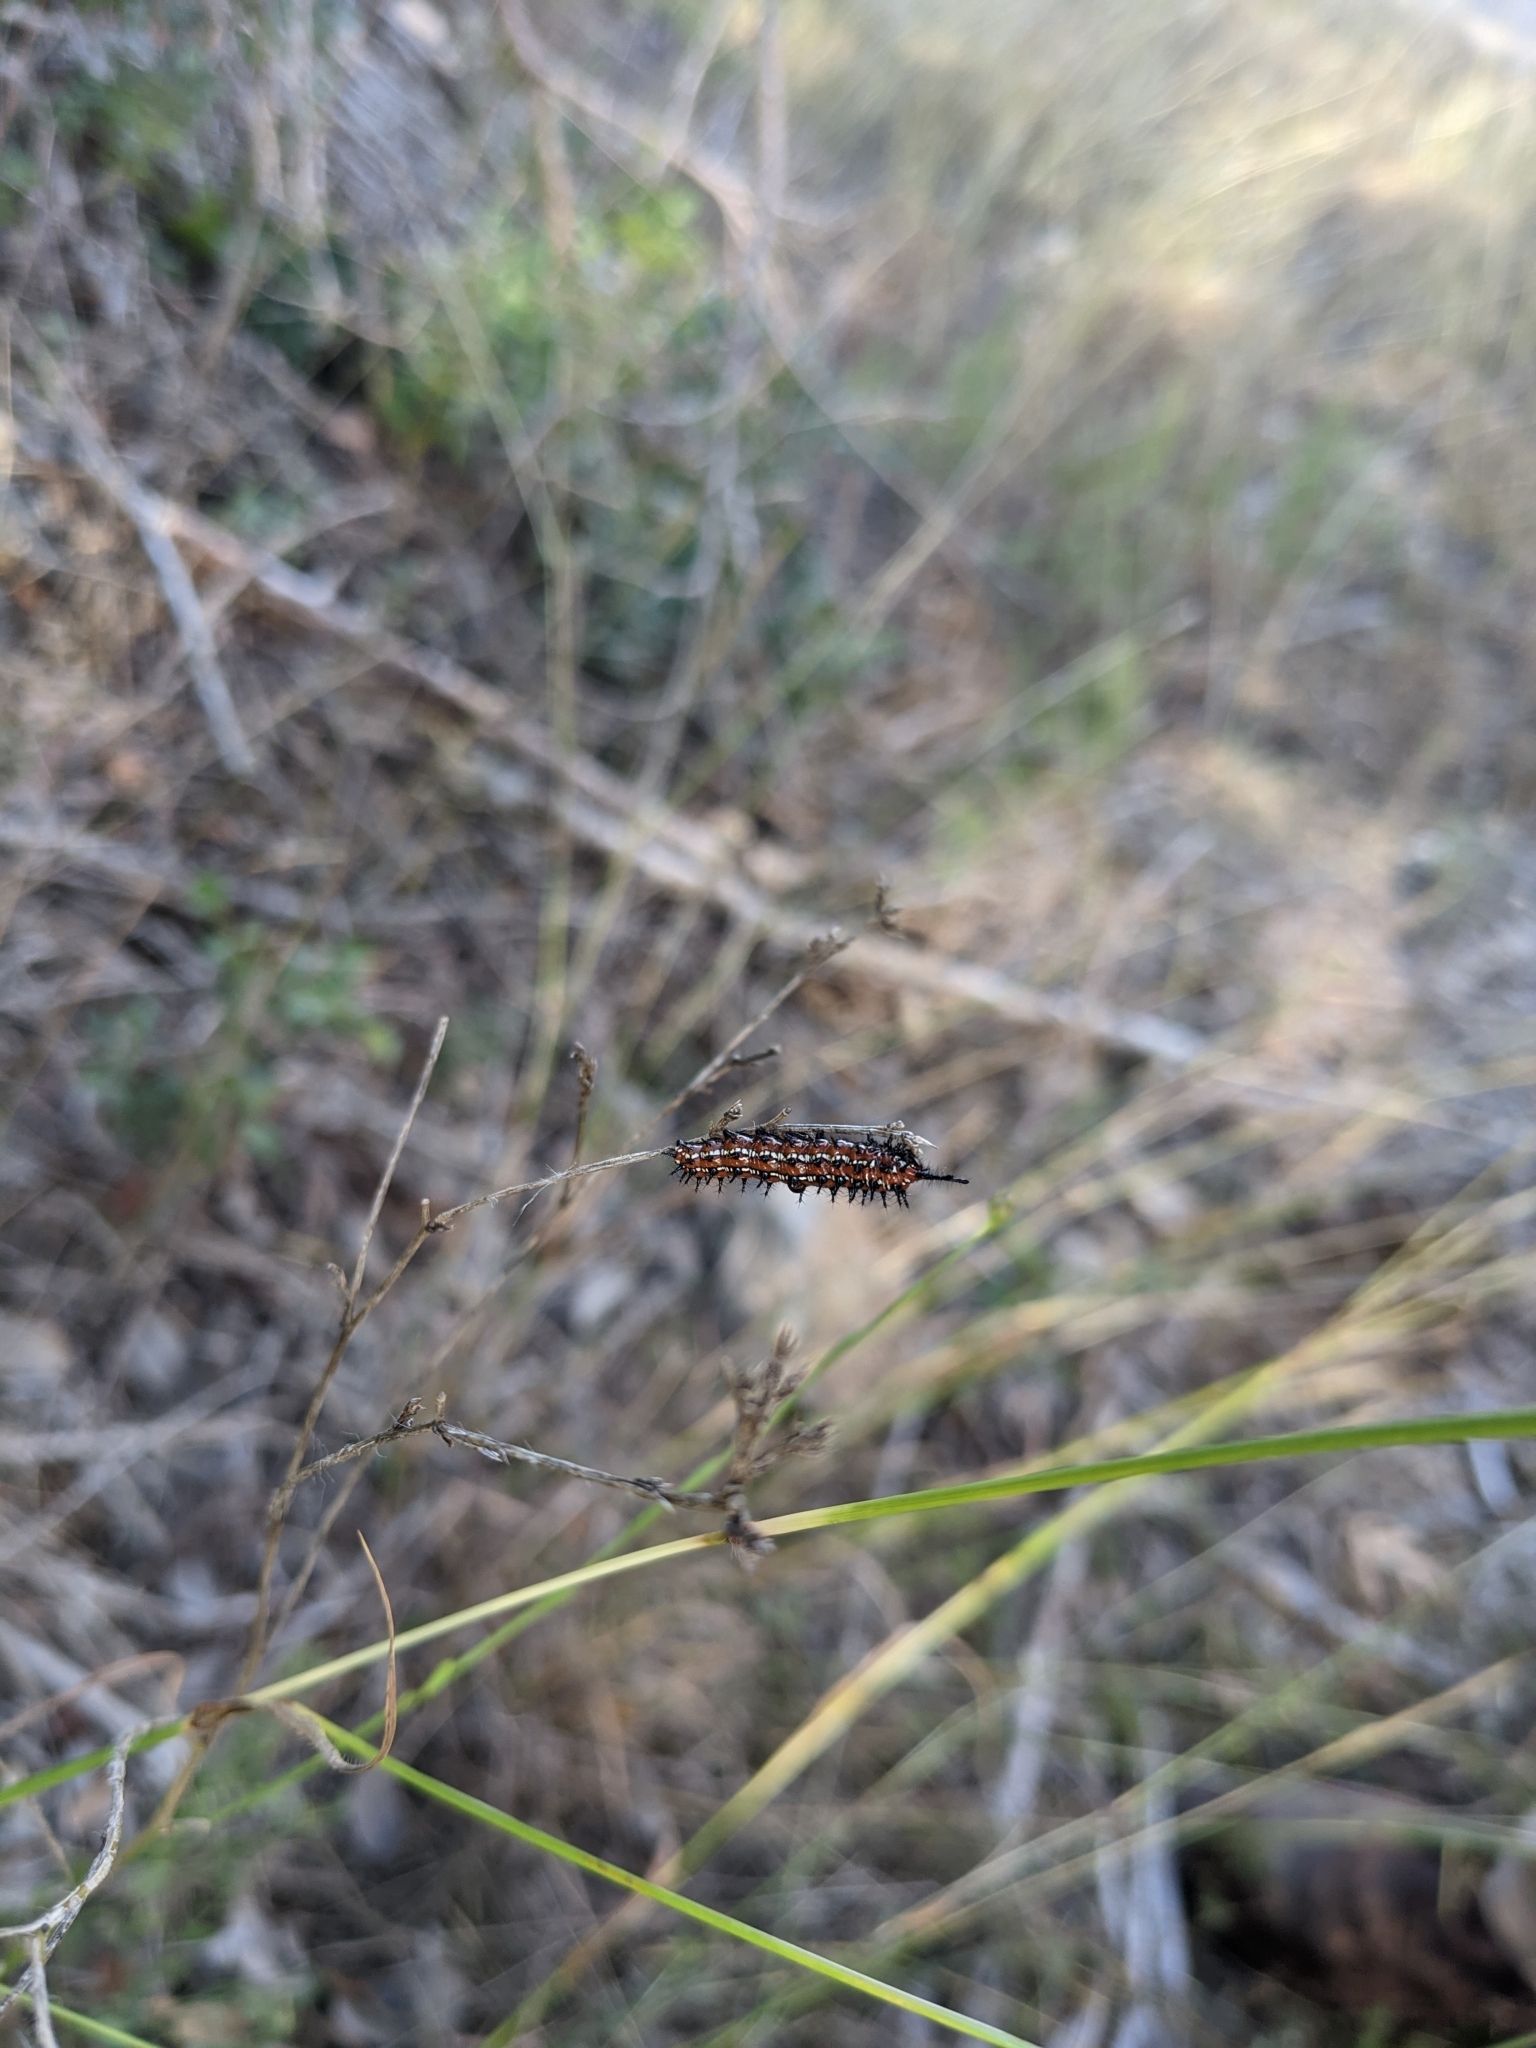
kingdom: Animalia
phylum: Arthropoda
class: Insecta
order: Lepidoptera
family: Nymphalidae
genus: Euptoieta
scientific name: Euptoieta claudia
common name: Variegated fritillary
